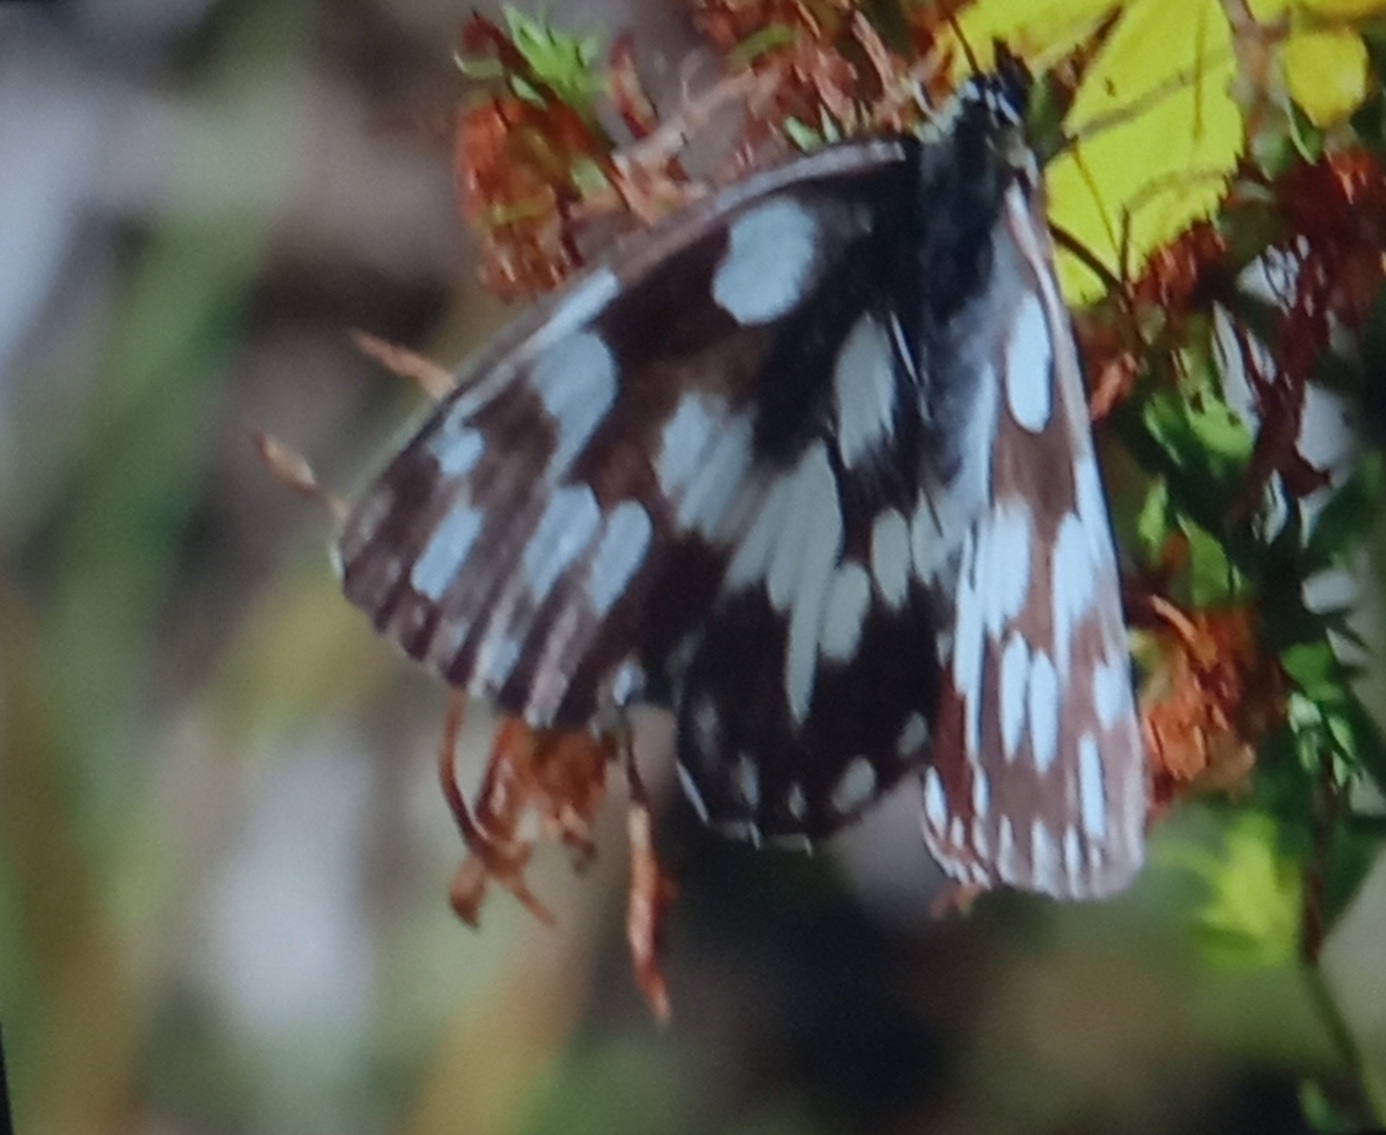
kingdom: Animalia
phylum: Arthropoda
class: Insecta
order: Lepidoptera
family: Nymphalidae
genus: Melanargia
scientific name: Melanargia galathea
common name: Marbled white
